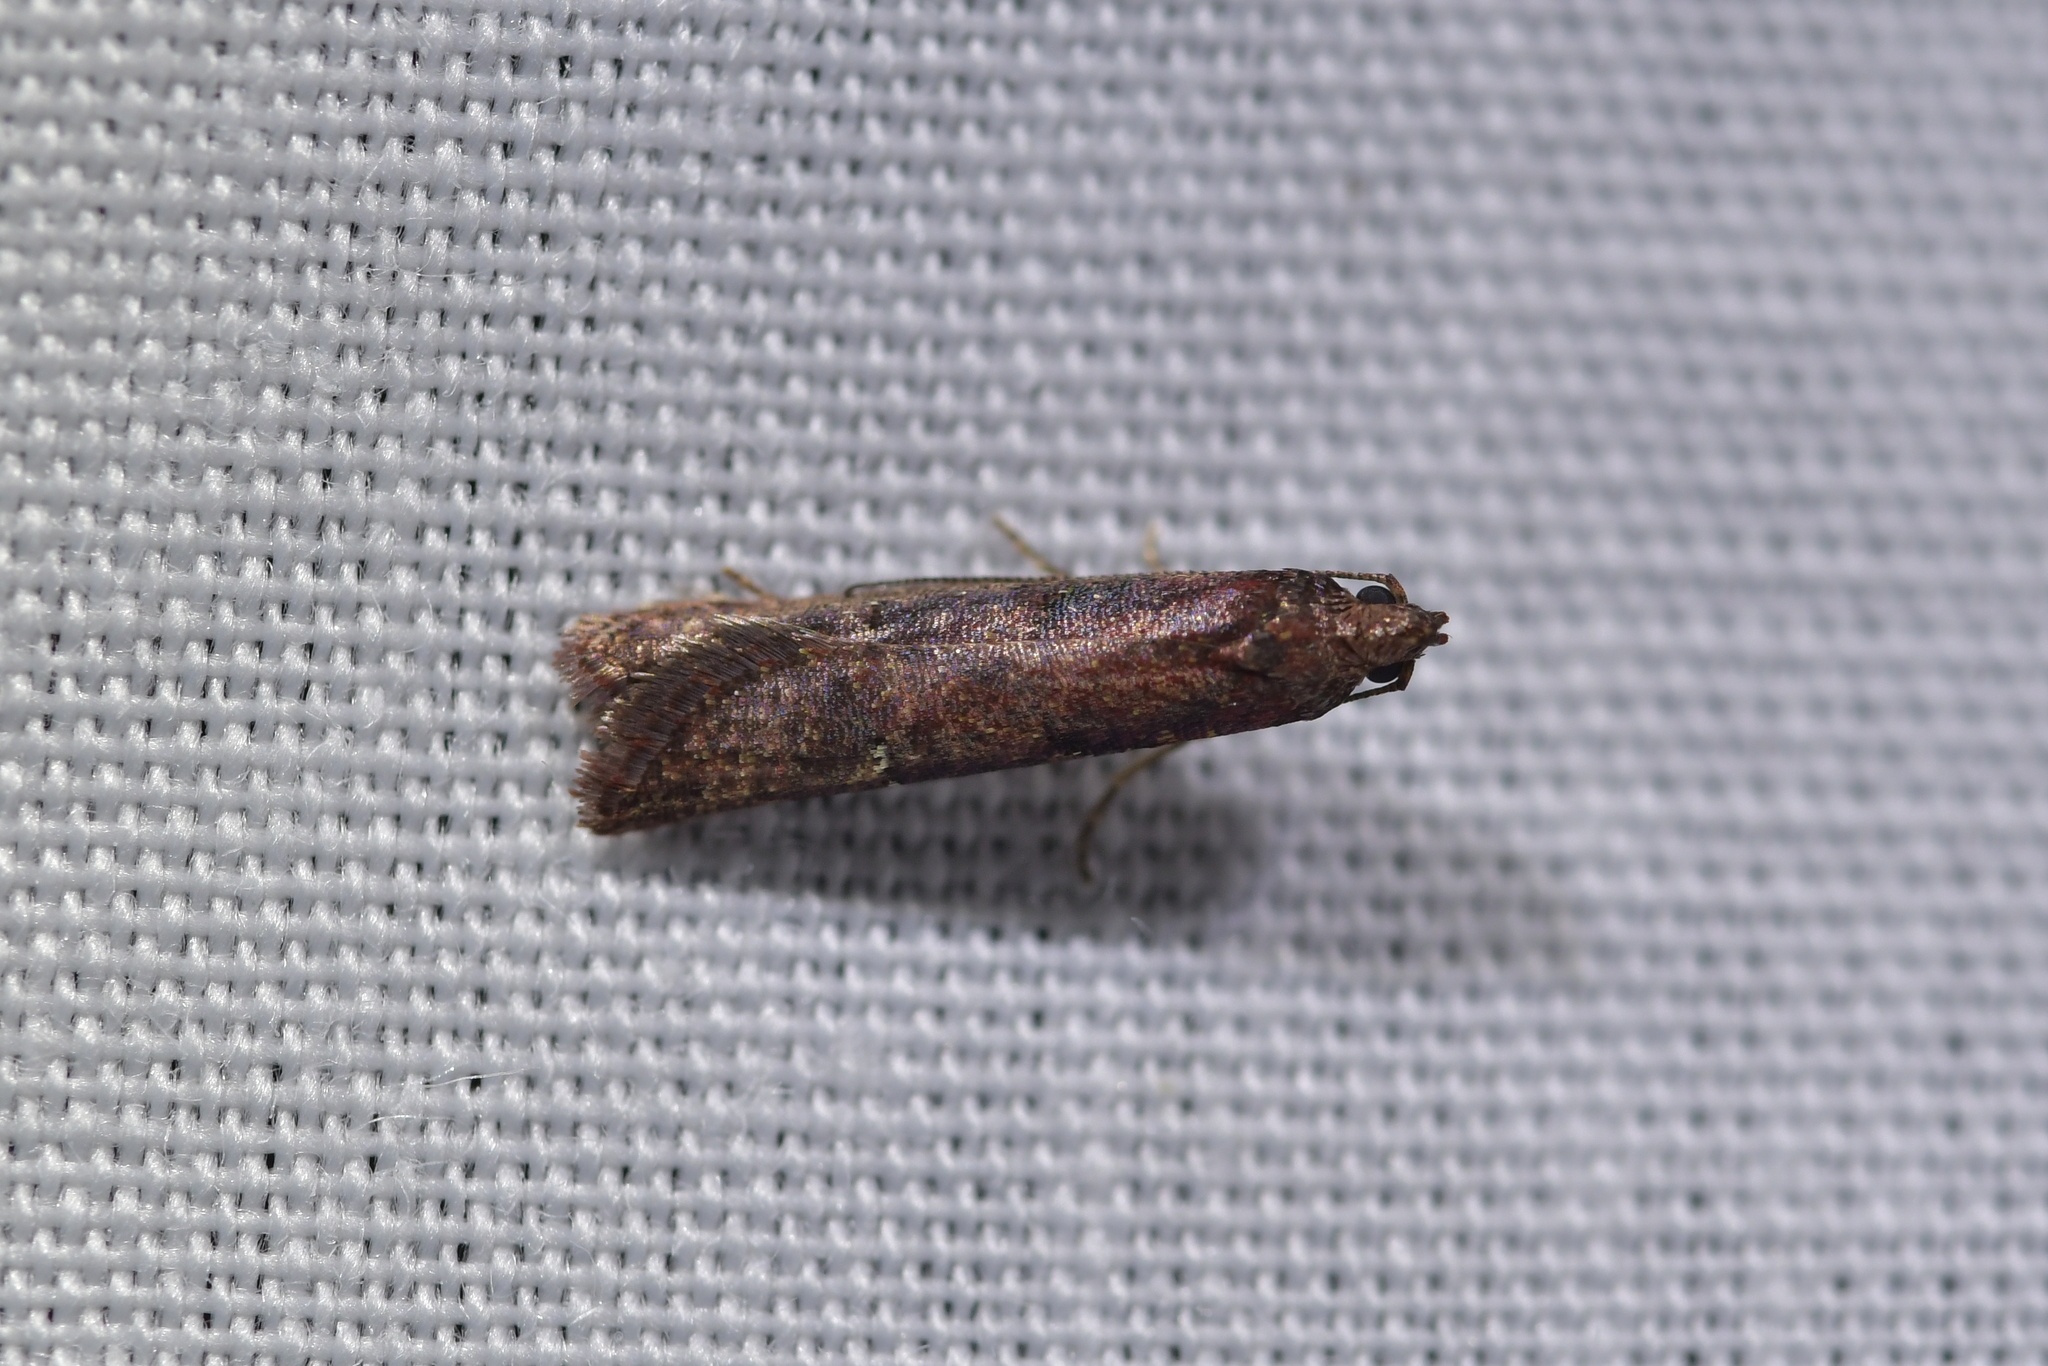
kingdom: Animalia
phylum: Arthropoda
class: Insecta
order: Lepidoptera
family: Plutellidae
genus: Cadmogenes
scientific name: Cadmogenes literata
